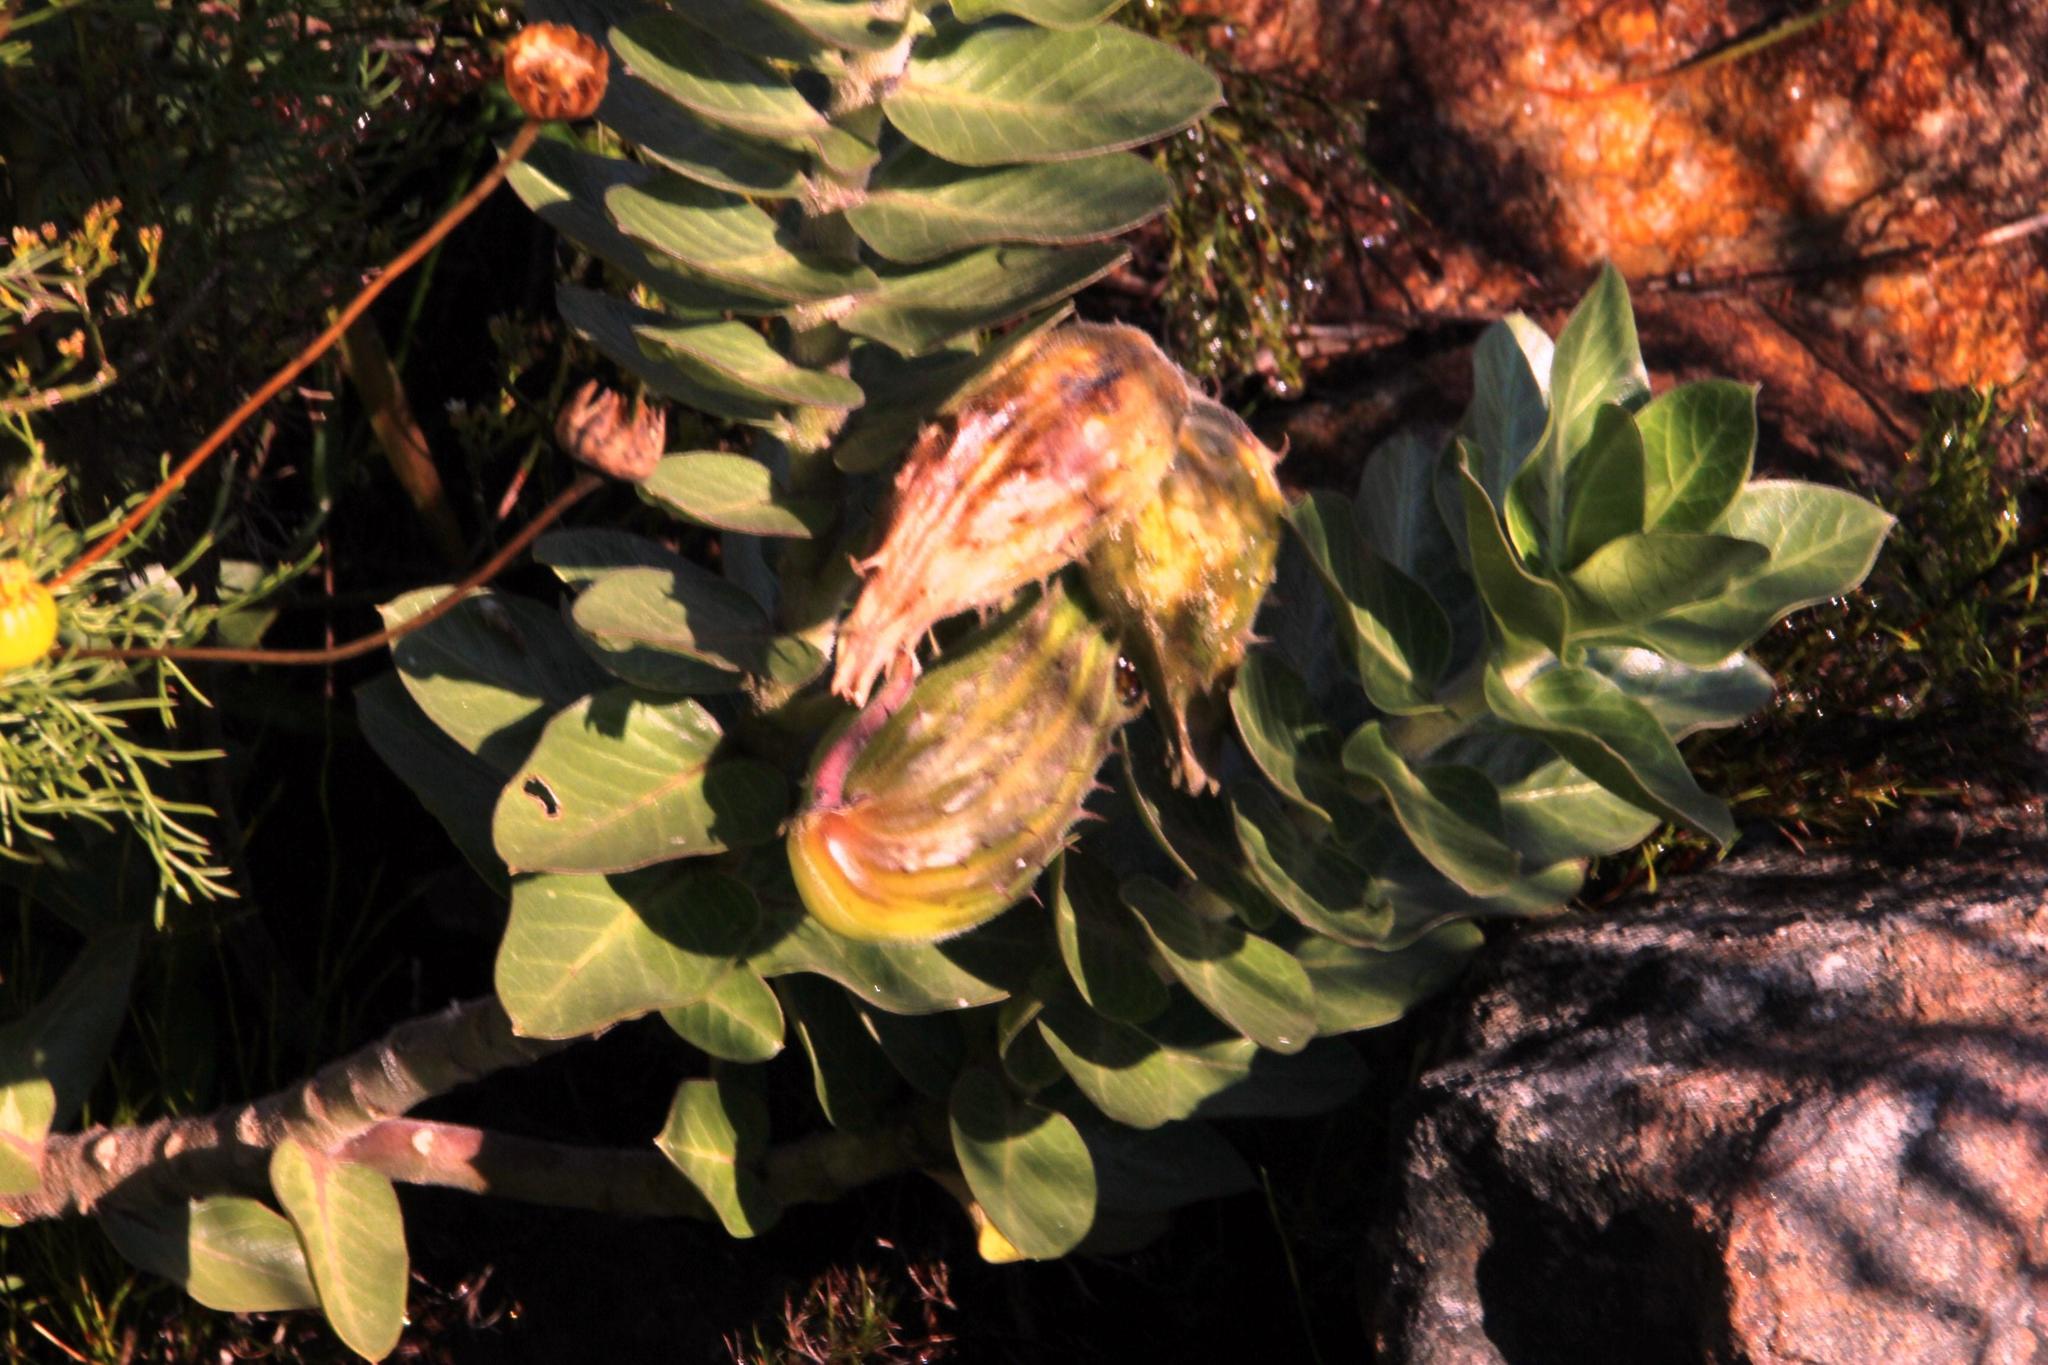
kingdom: Plantae
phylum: Tracheophyta
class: Magnoliopsida
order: Gentianales
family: Apocynaceae
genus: Gomphocarpus
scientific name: Gomphocarpus cancellatus
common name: Wild cotton
